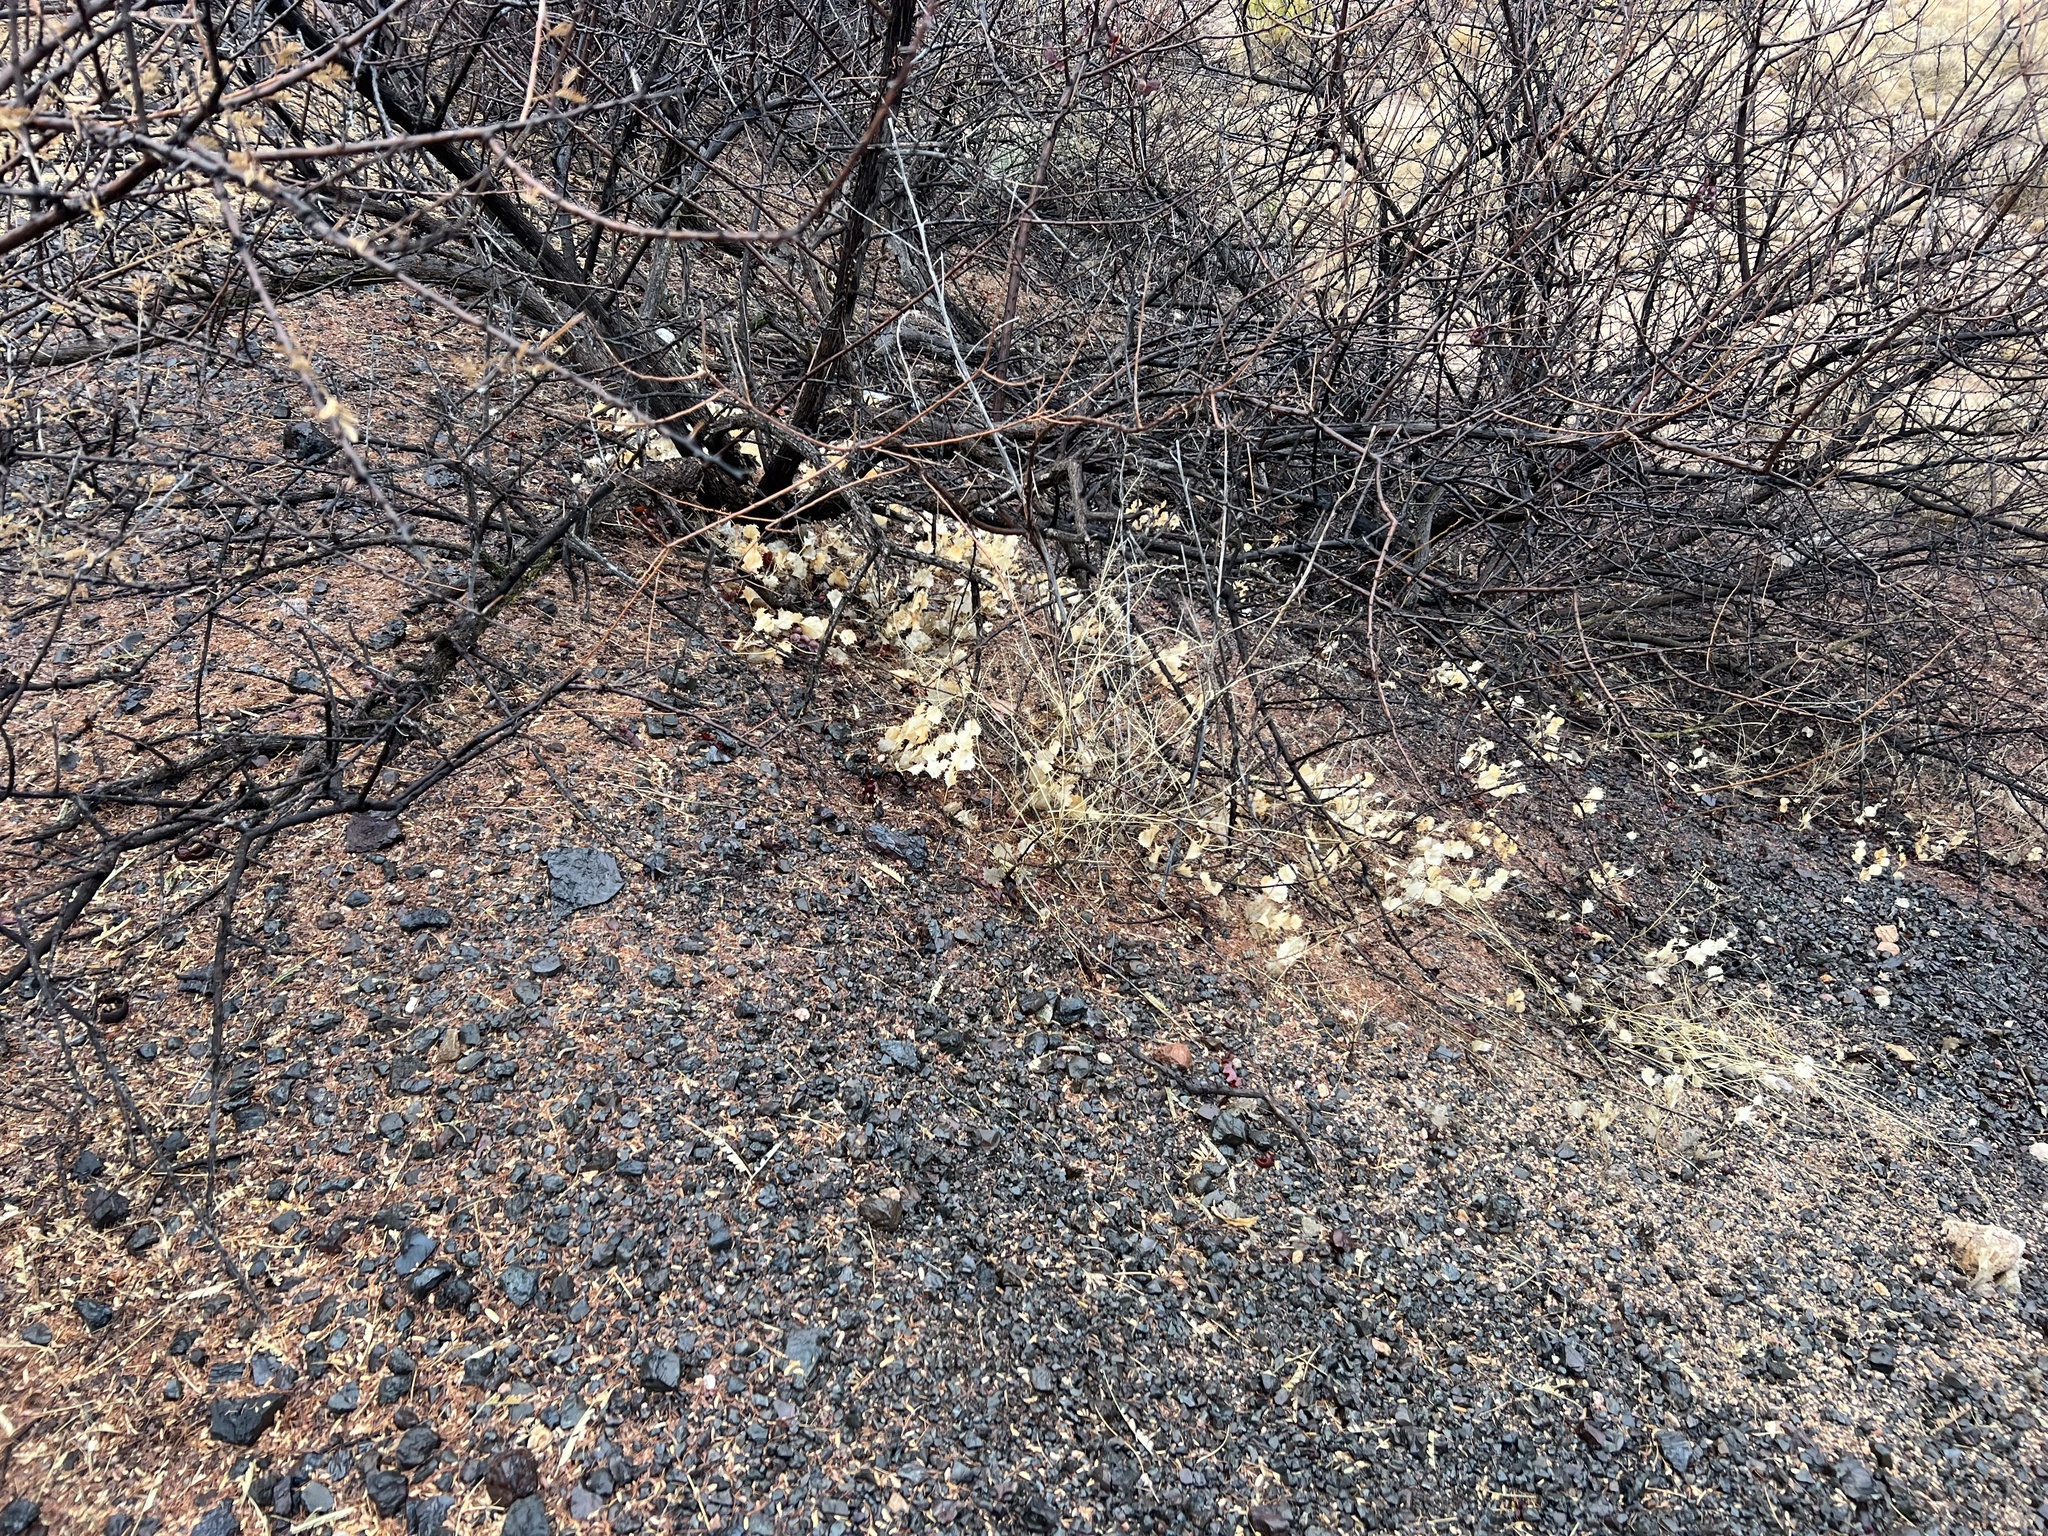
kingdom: Plantae
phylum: Tracheophyta
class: Magnoliopsida
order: Asterales
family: Asteraceae
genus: Acourtia
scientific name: Acourtia nana
